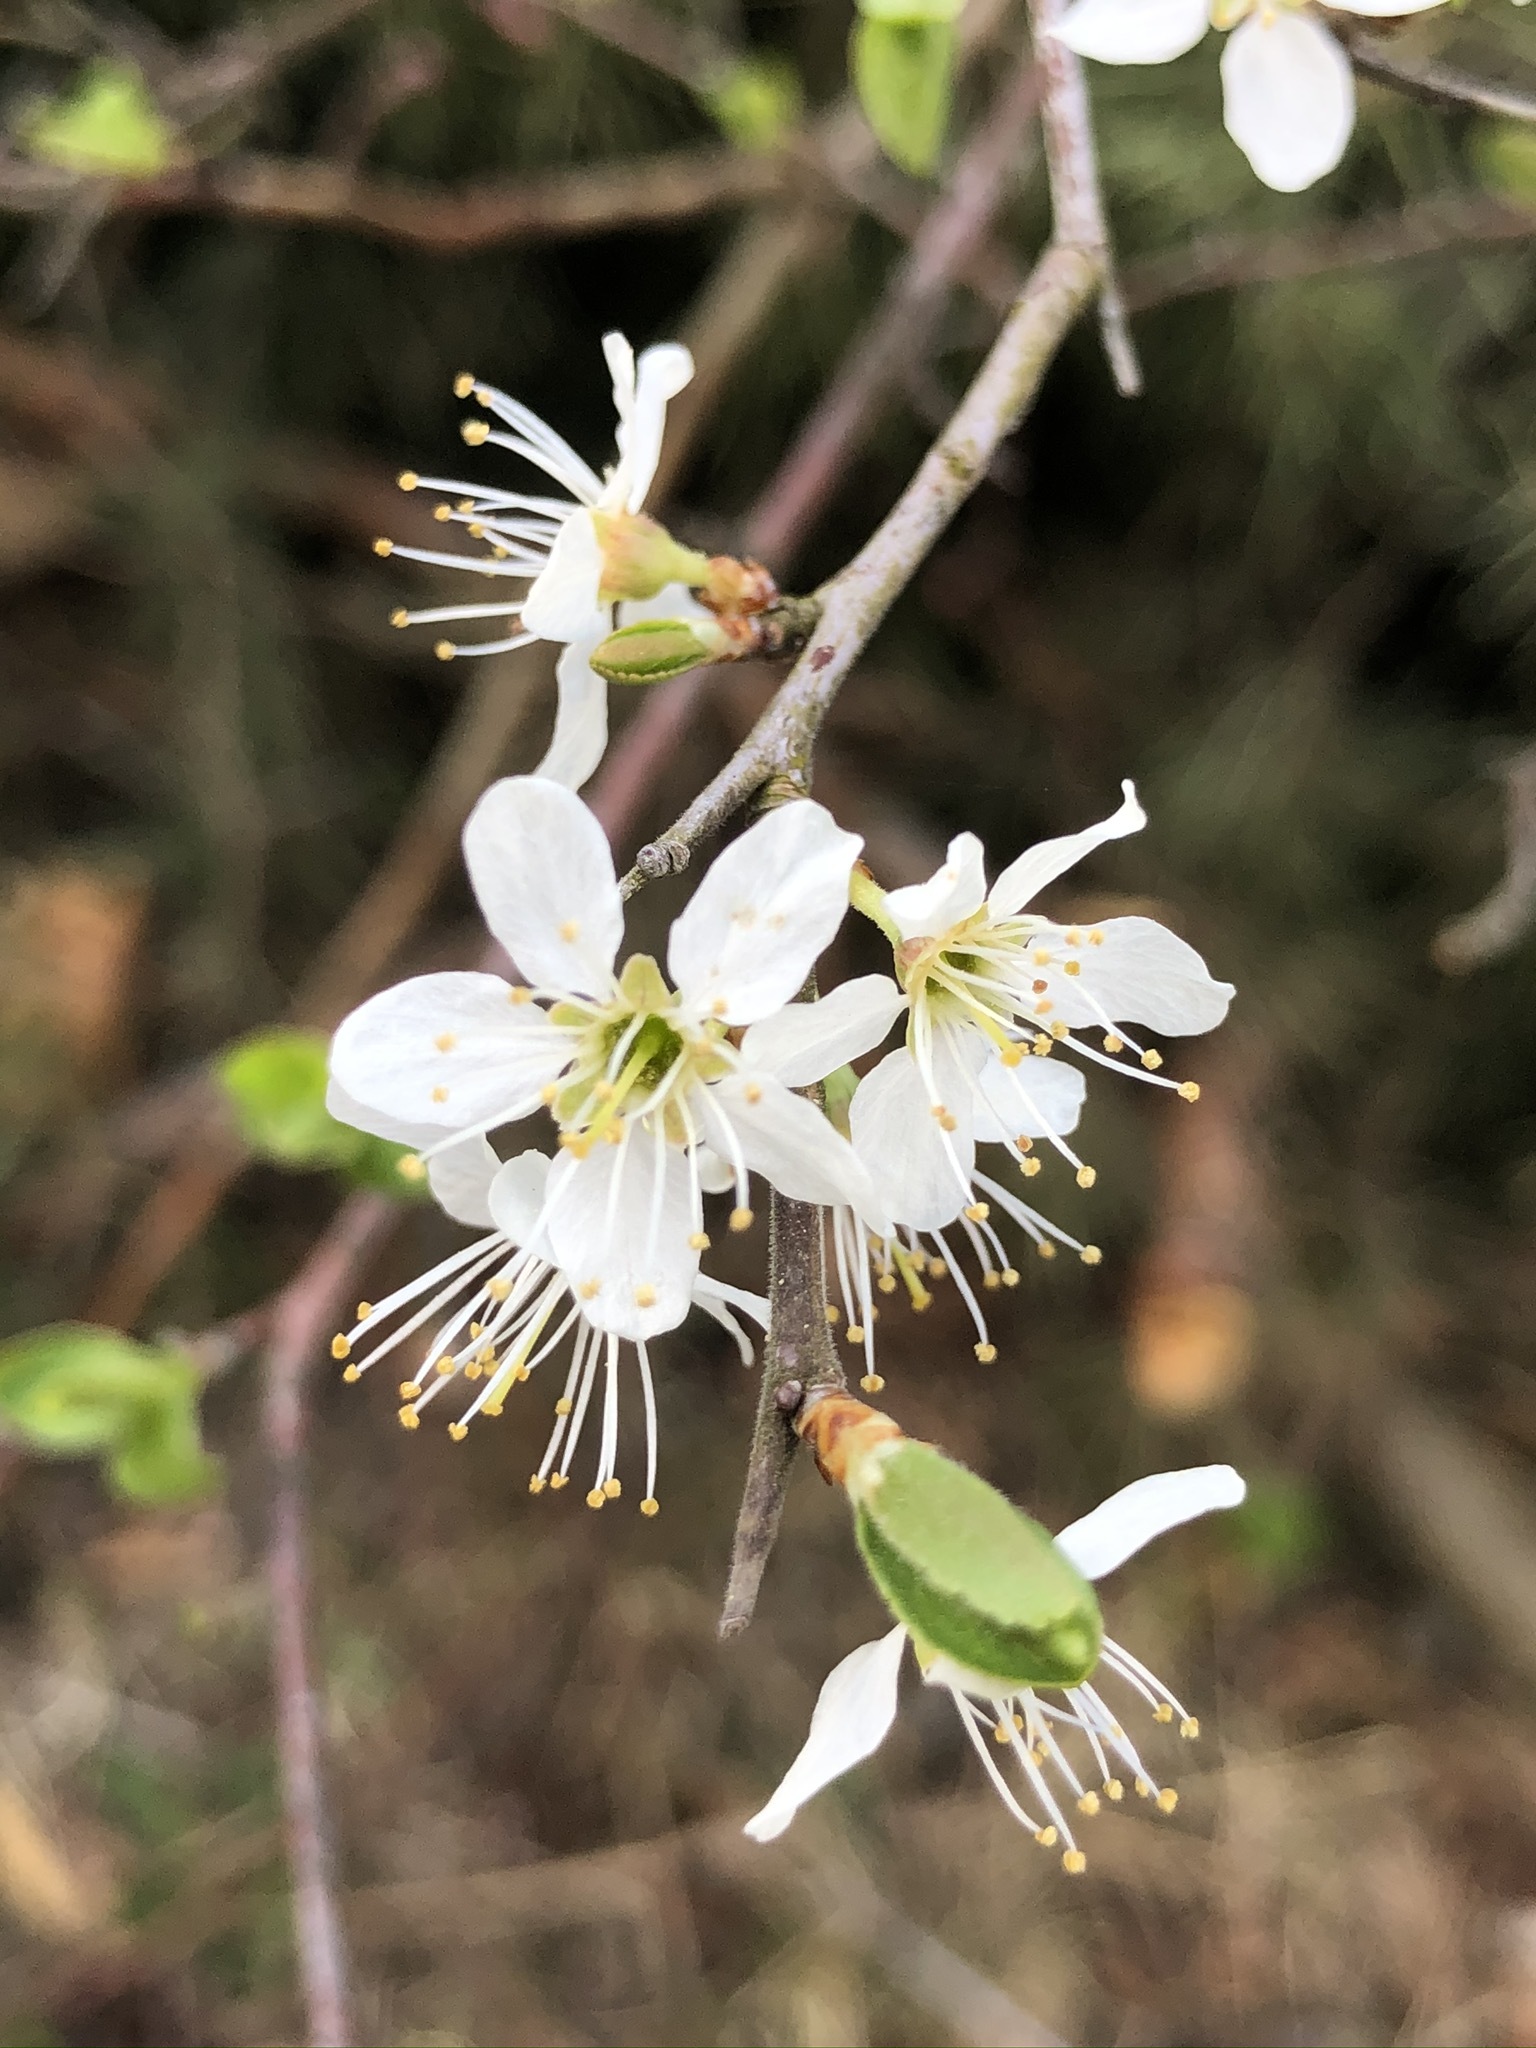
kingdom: Plantae
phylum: Tracheophyta
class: Magnoliopsida
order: Rosales
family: Rosaceae
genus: Prunus
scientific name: Prunus spinosa
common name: Blackthorn
